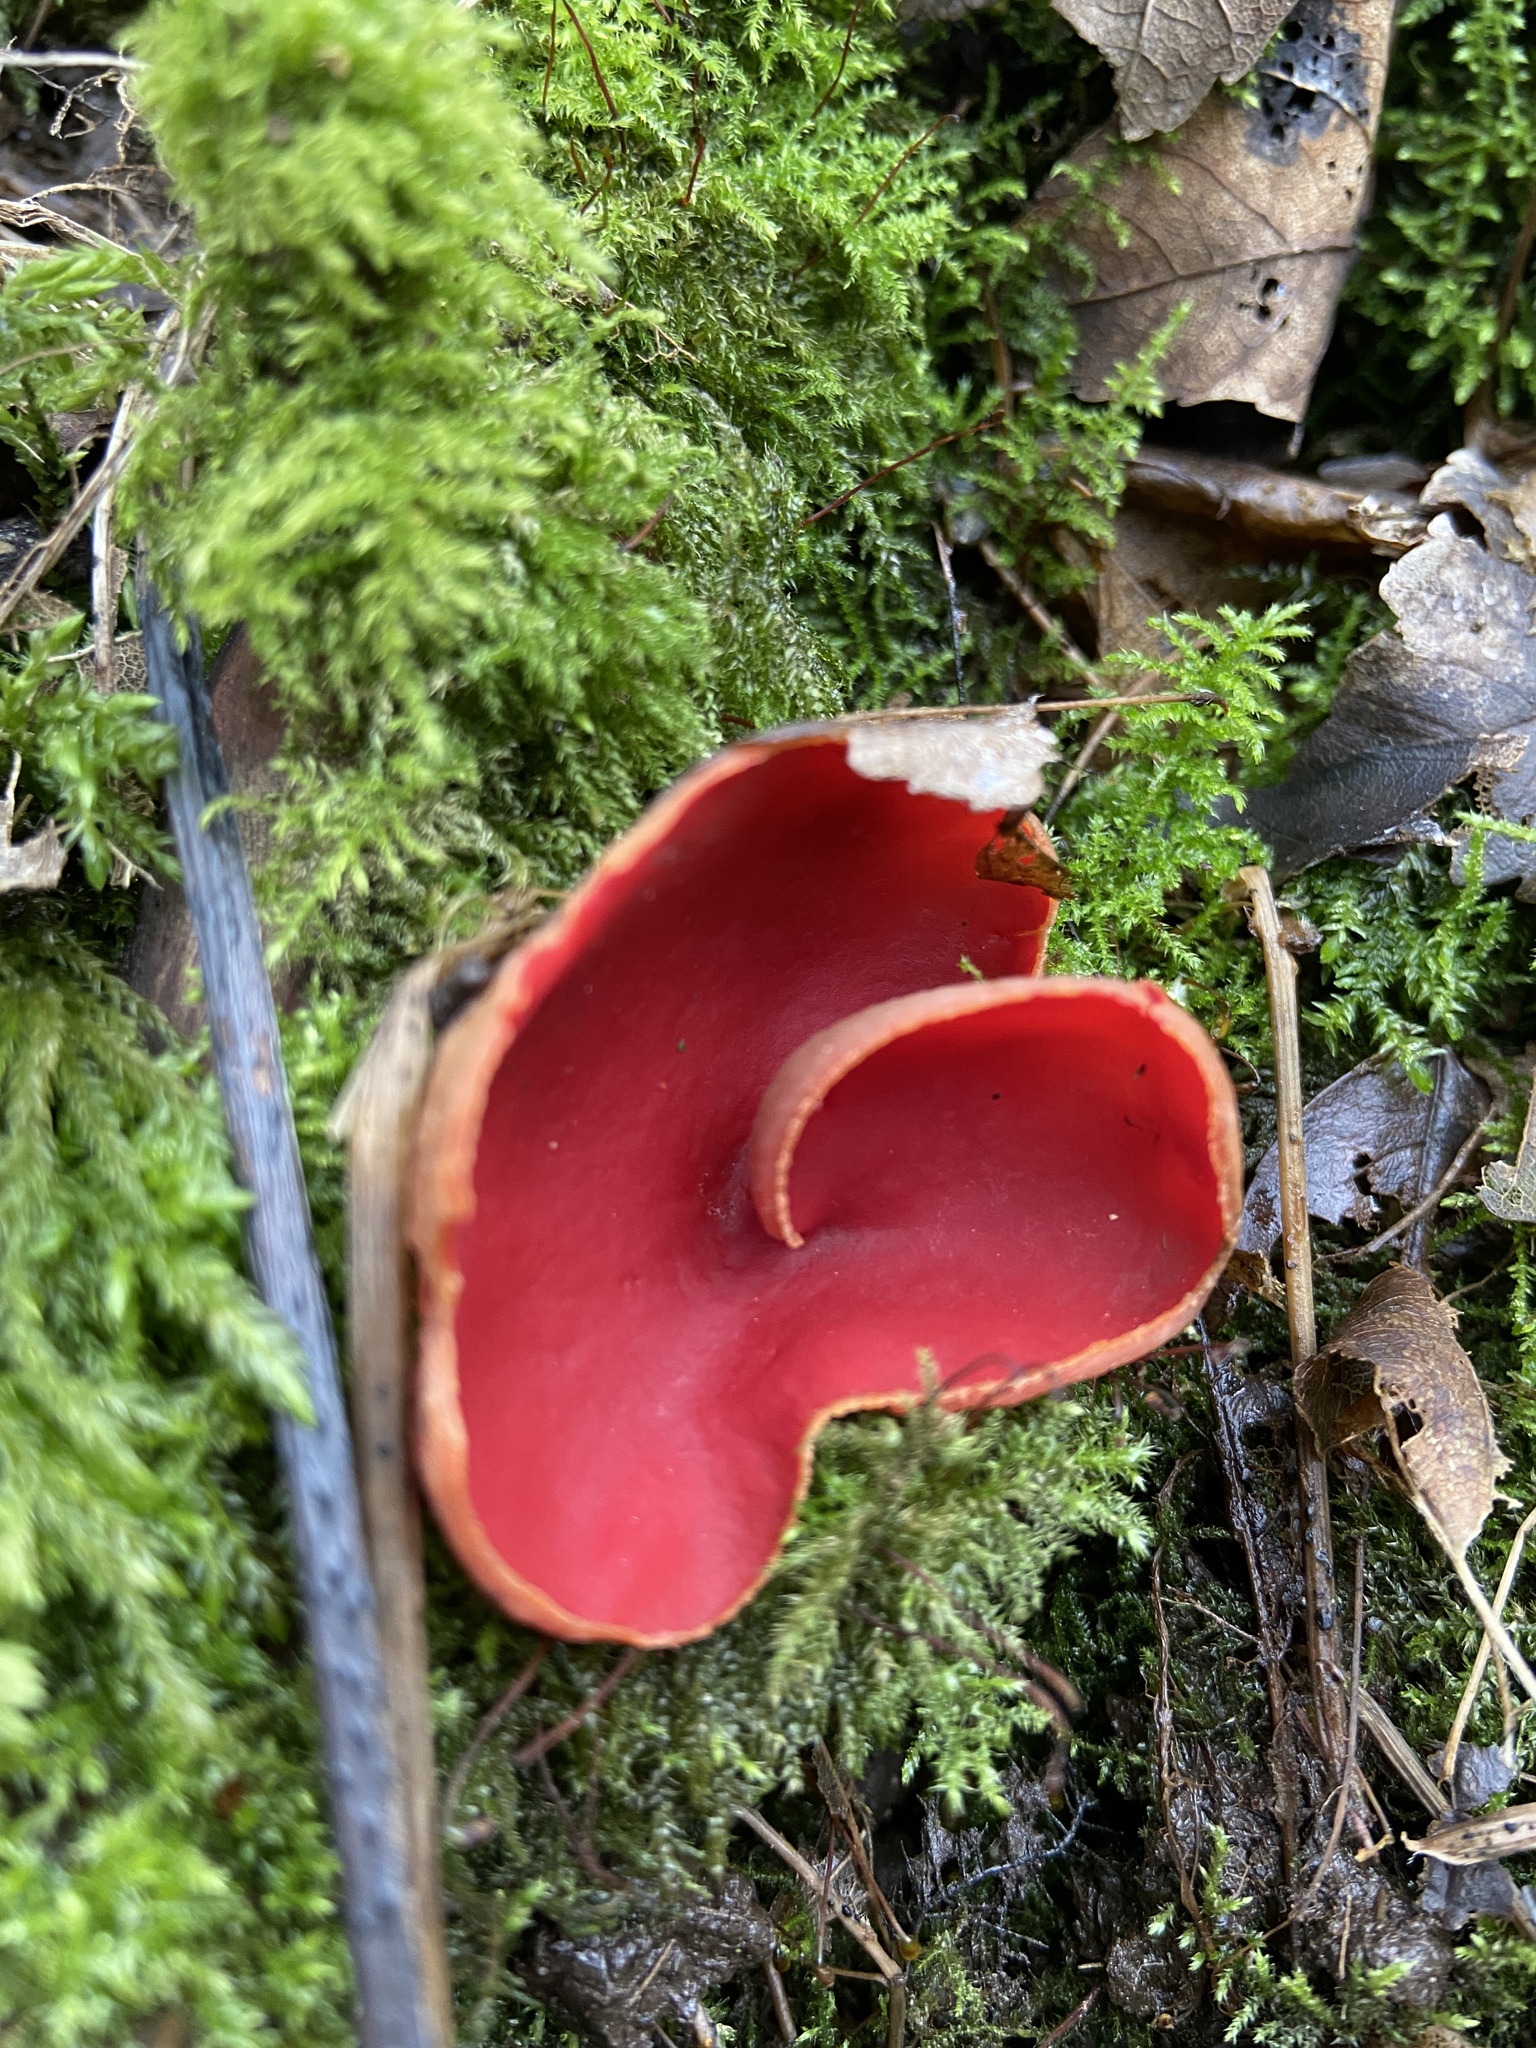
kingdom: Fungi
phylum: Ascomycota
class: Pezizomycetes
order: Pezizales
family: Sarcoscyphaceae
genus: Sarcoscypha
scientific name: Sarcoscypha
